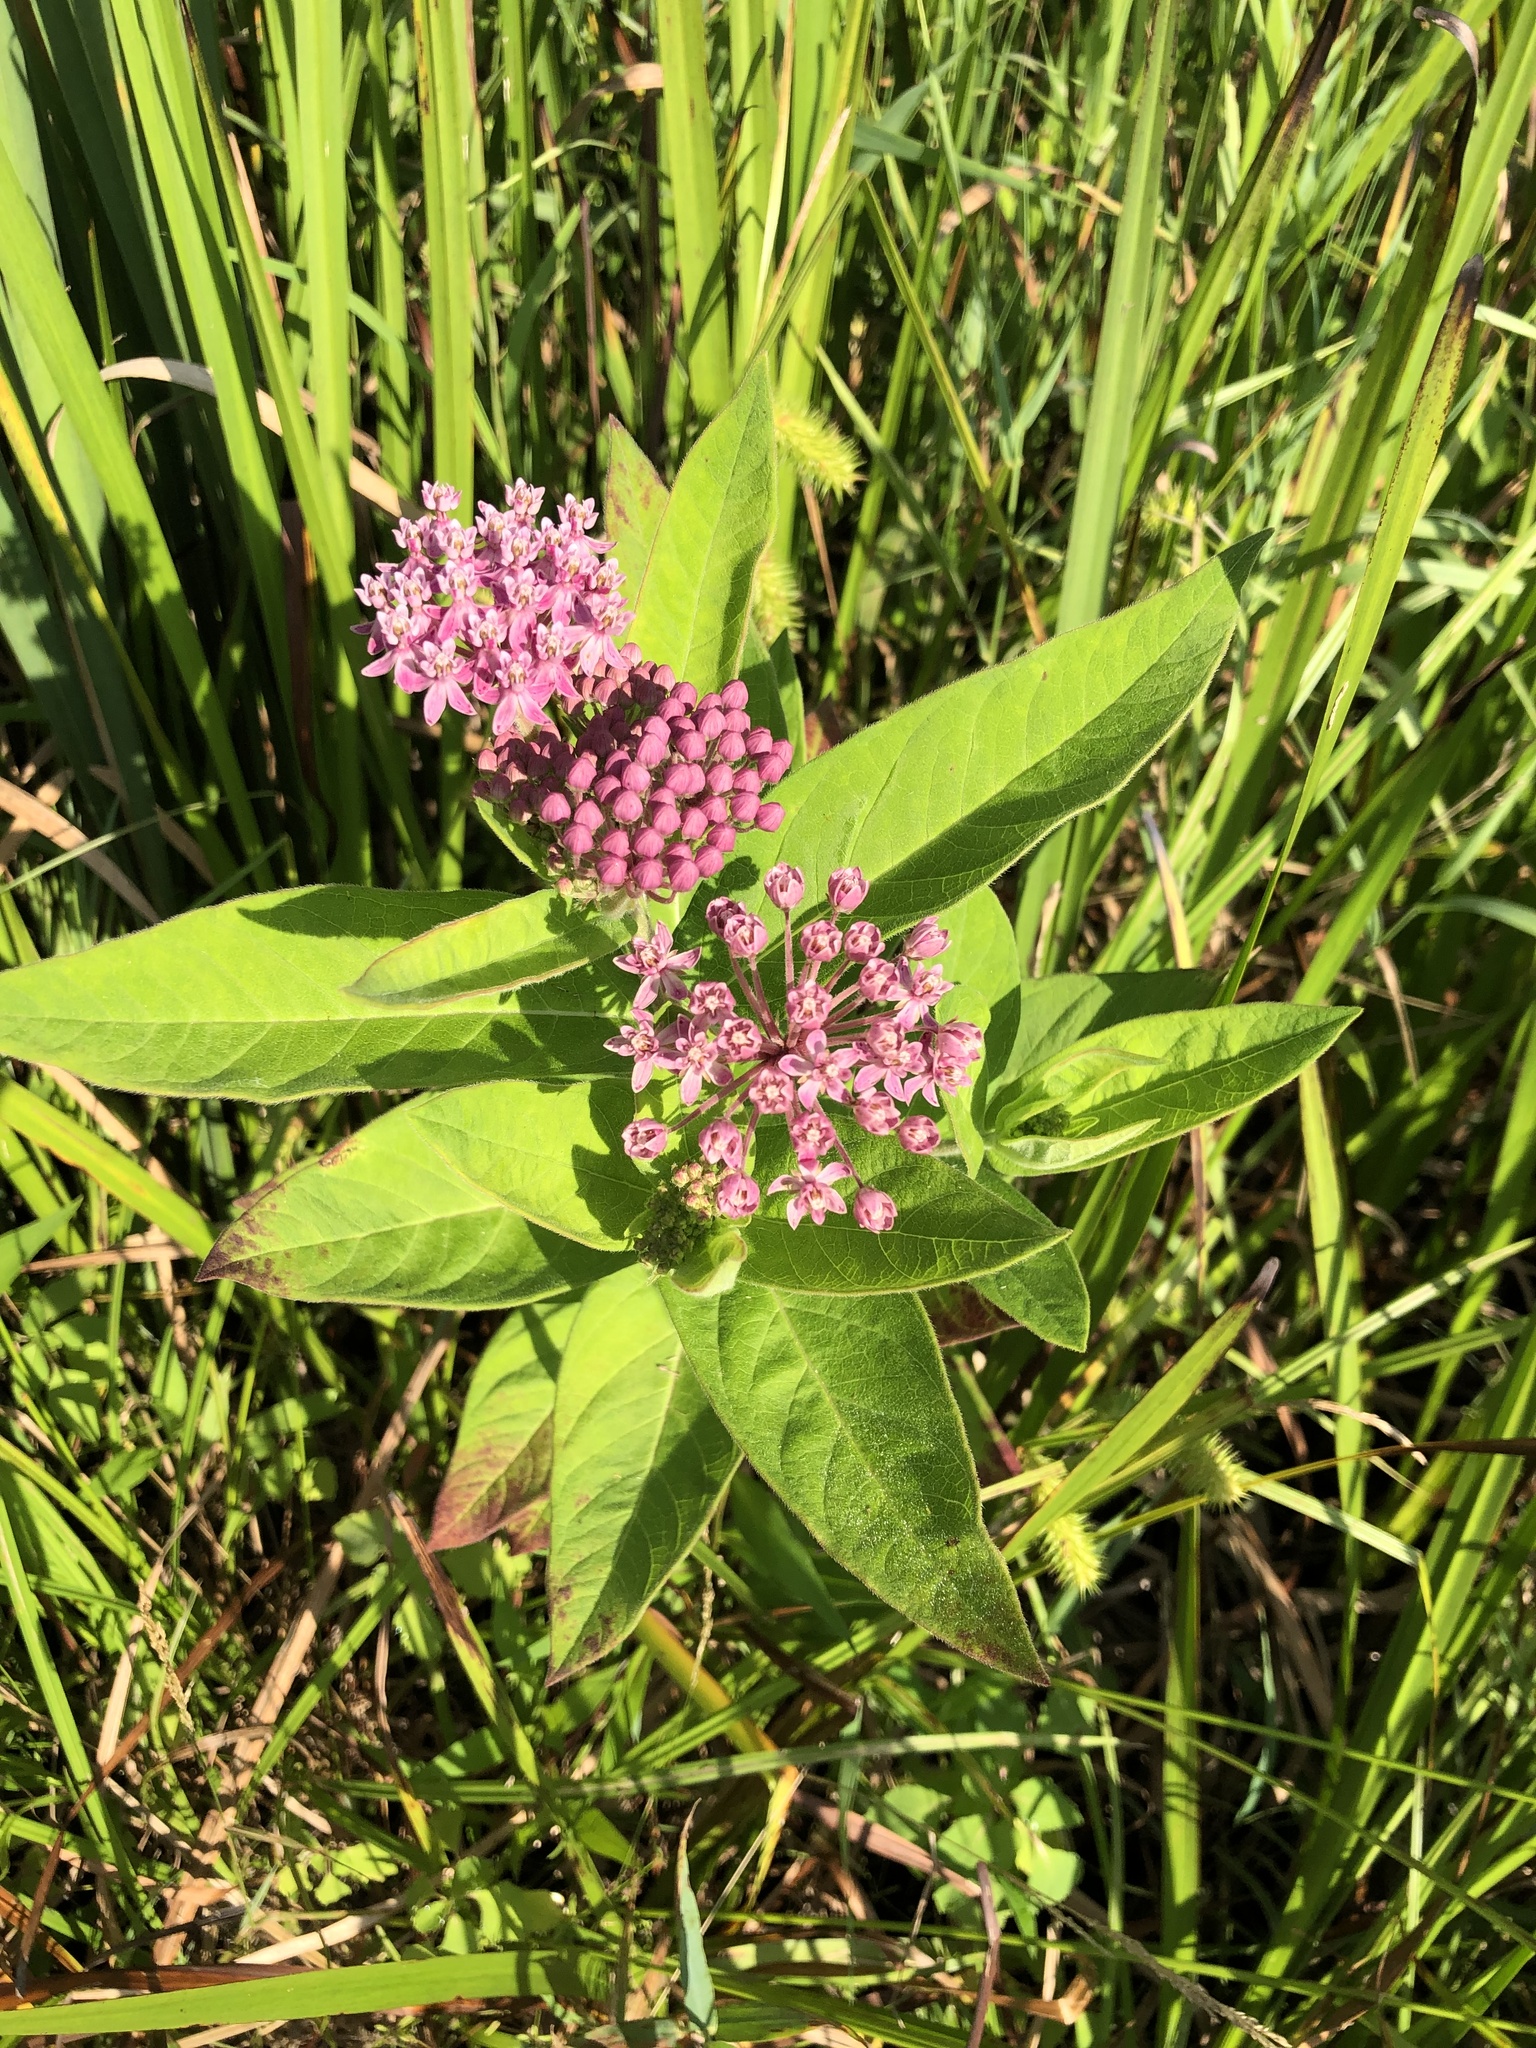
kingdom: Plantae
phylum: Tracheophyta
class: Magnoliopsida
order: Gentianales
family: Apocynaceae
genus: Asclepias
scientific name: Asclepias incarnata
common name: Swamp milkweed
